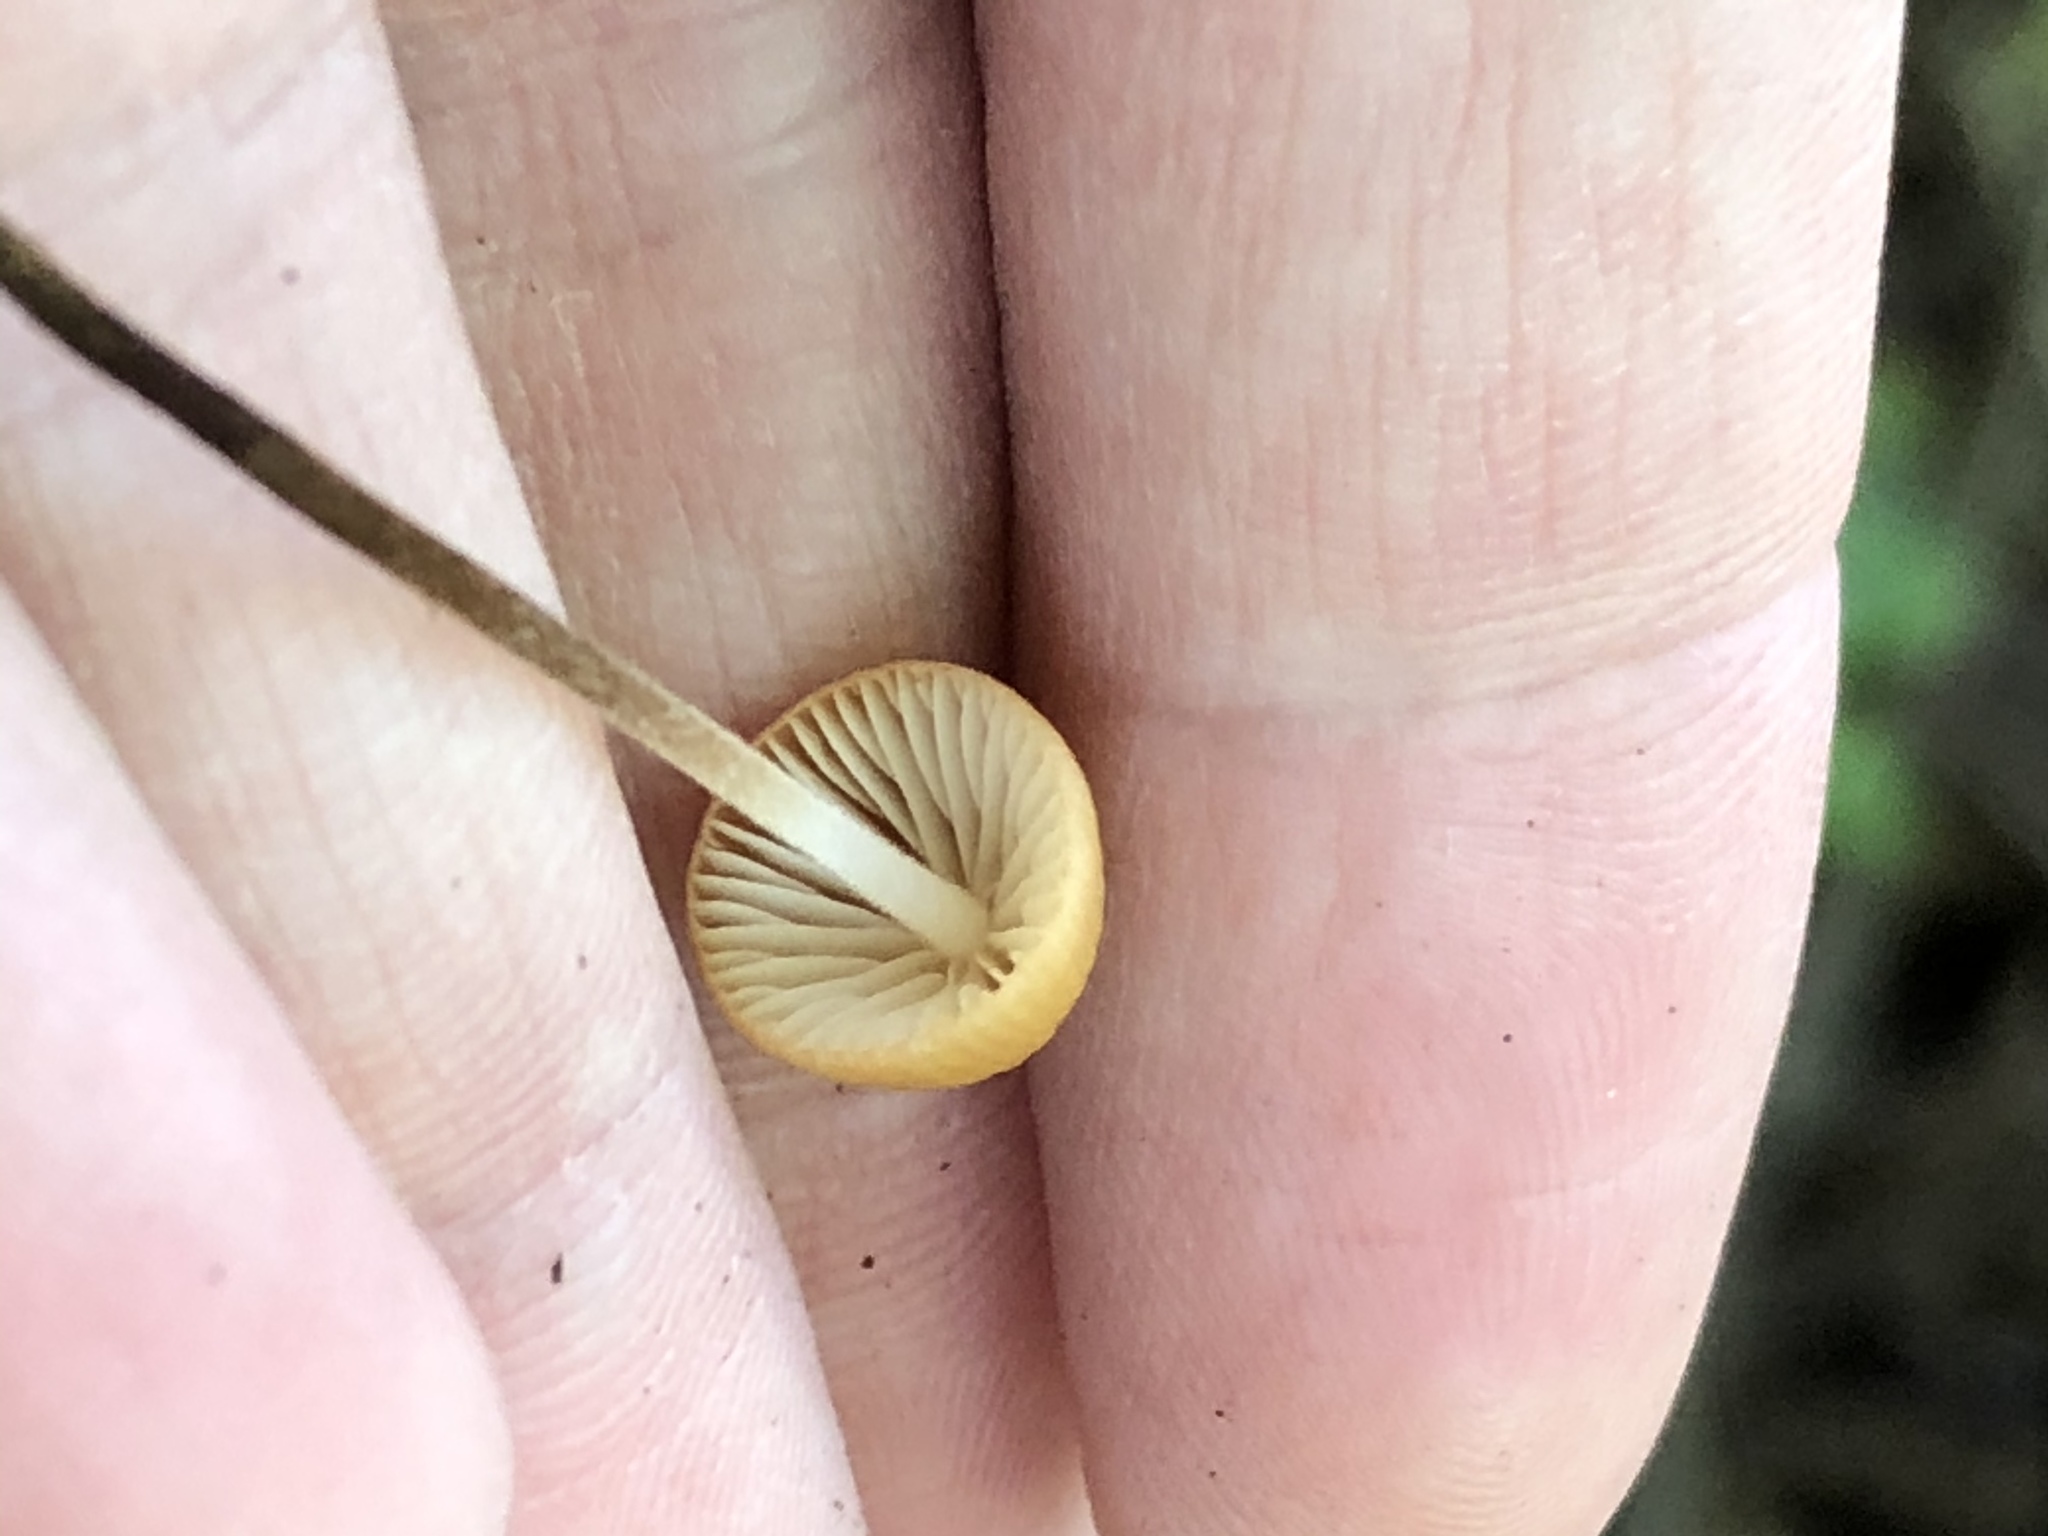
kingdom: Fungi
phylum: Basidiomycota
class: Agaricomycetes
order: Agaricales
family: Physalacriaceae
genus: Rhizomarasmius
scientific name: Rhizomarasmius pyrrhocephalus
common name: Hairy long stem marasmius
